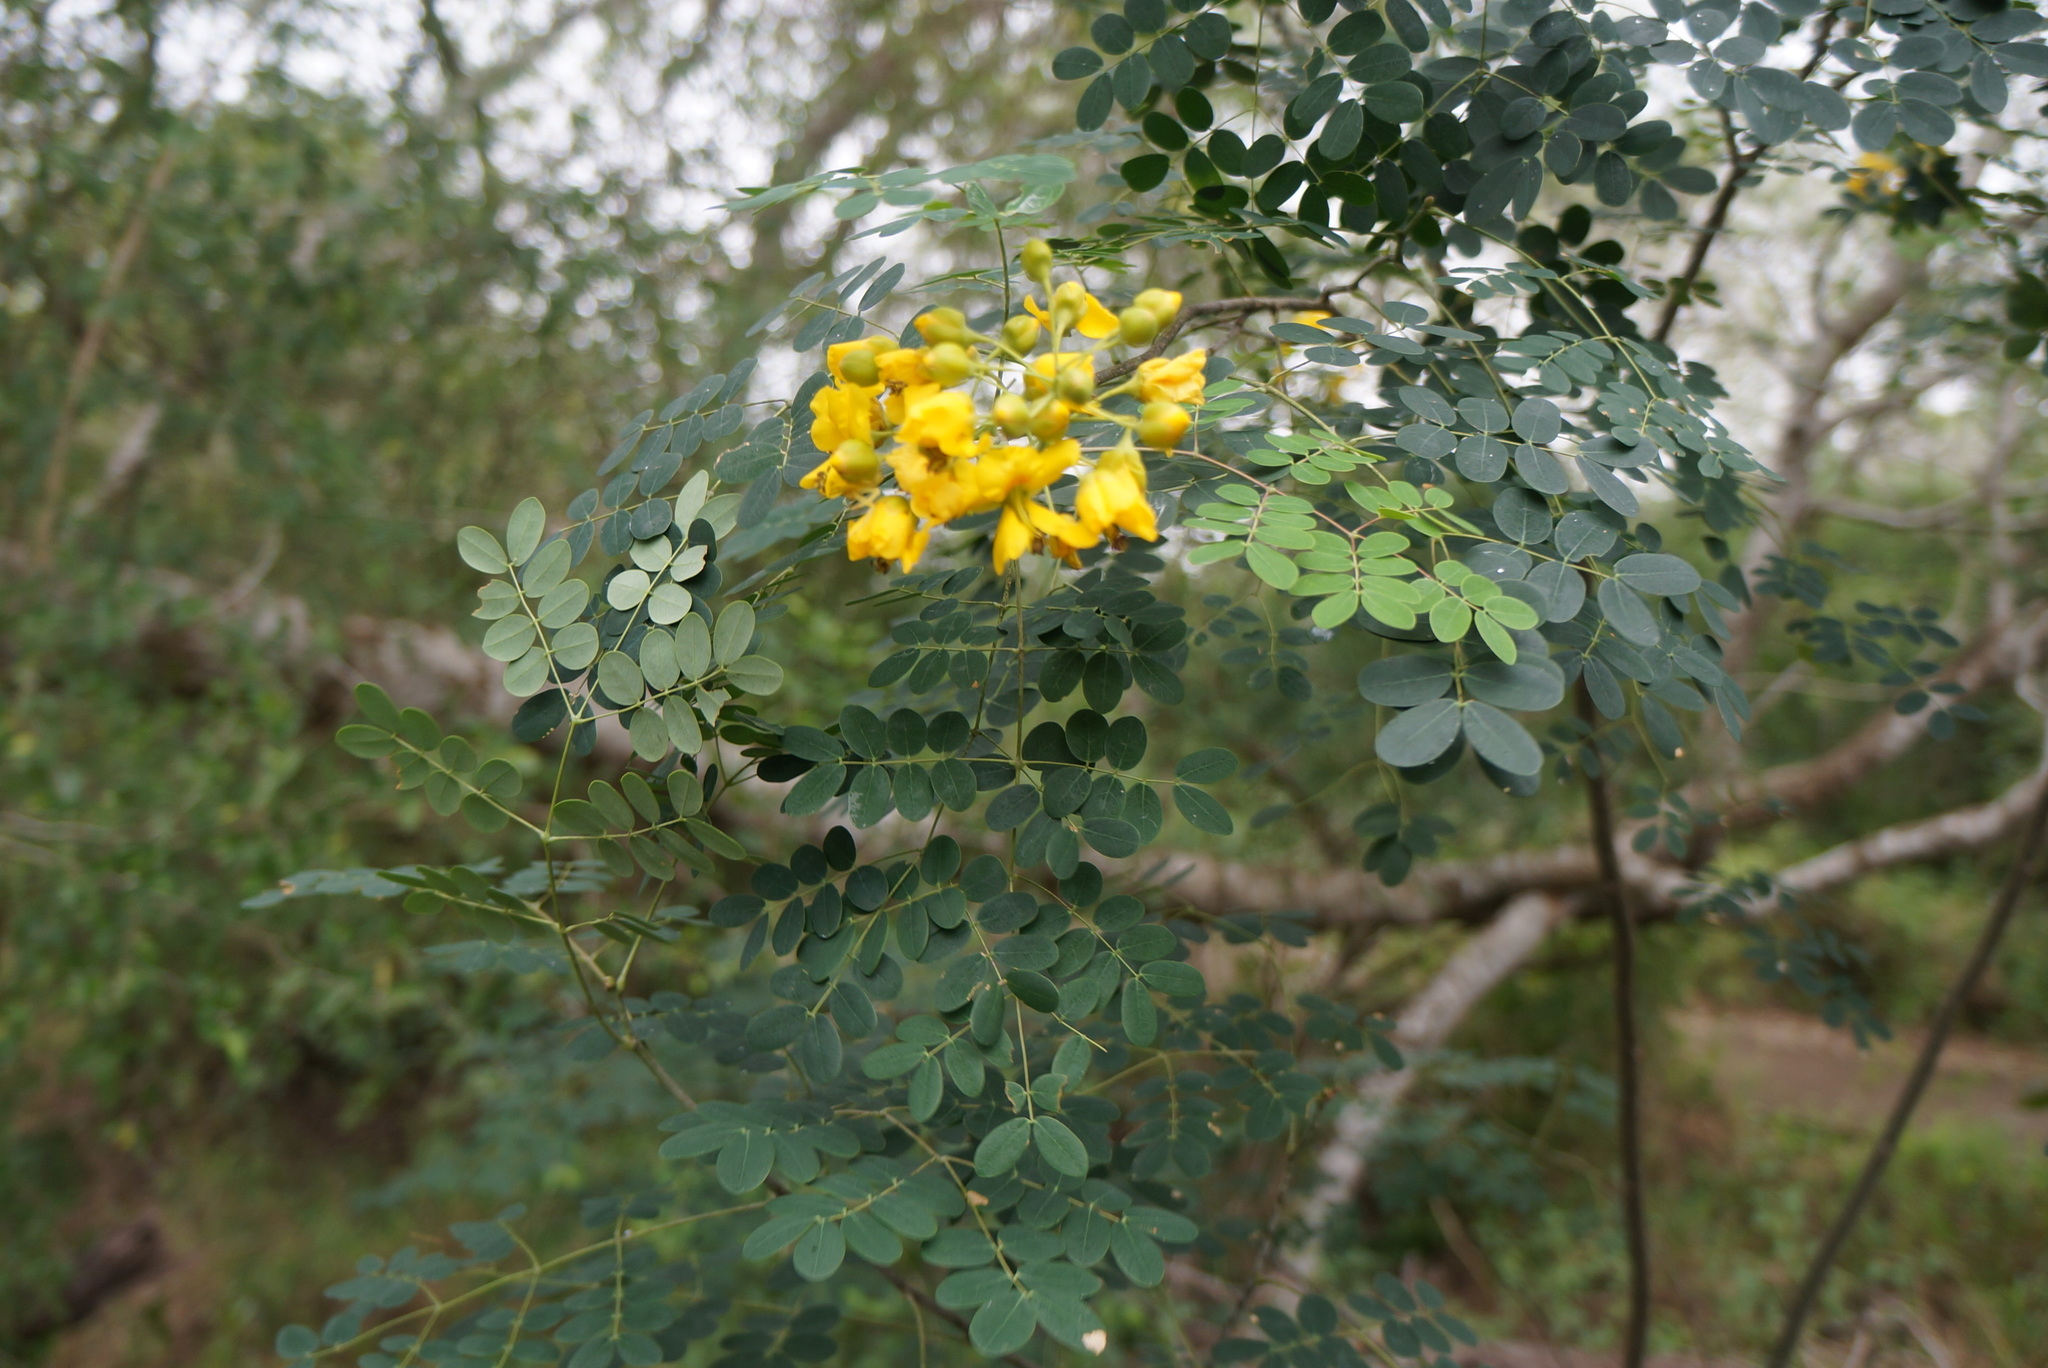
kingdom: Plantae
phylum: Tracheophyta
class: Magnoliopsida
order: Fabales
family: Fabaceae
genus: Erythrostemon
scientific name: Erythrostemon mexicanus
